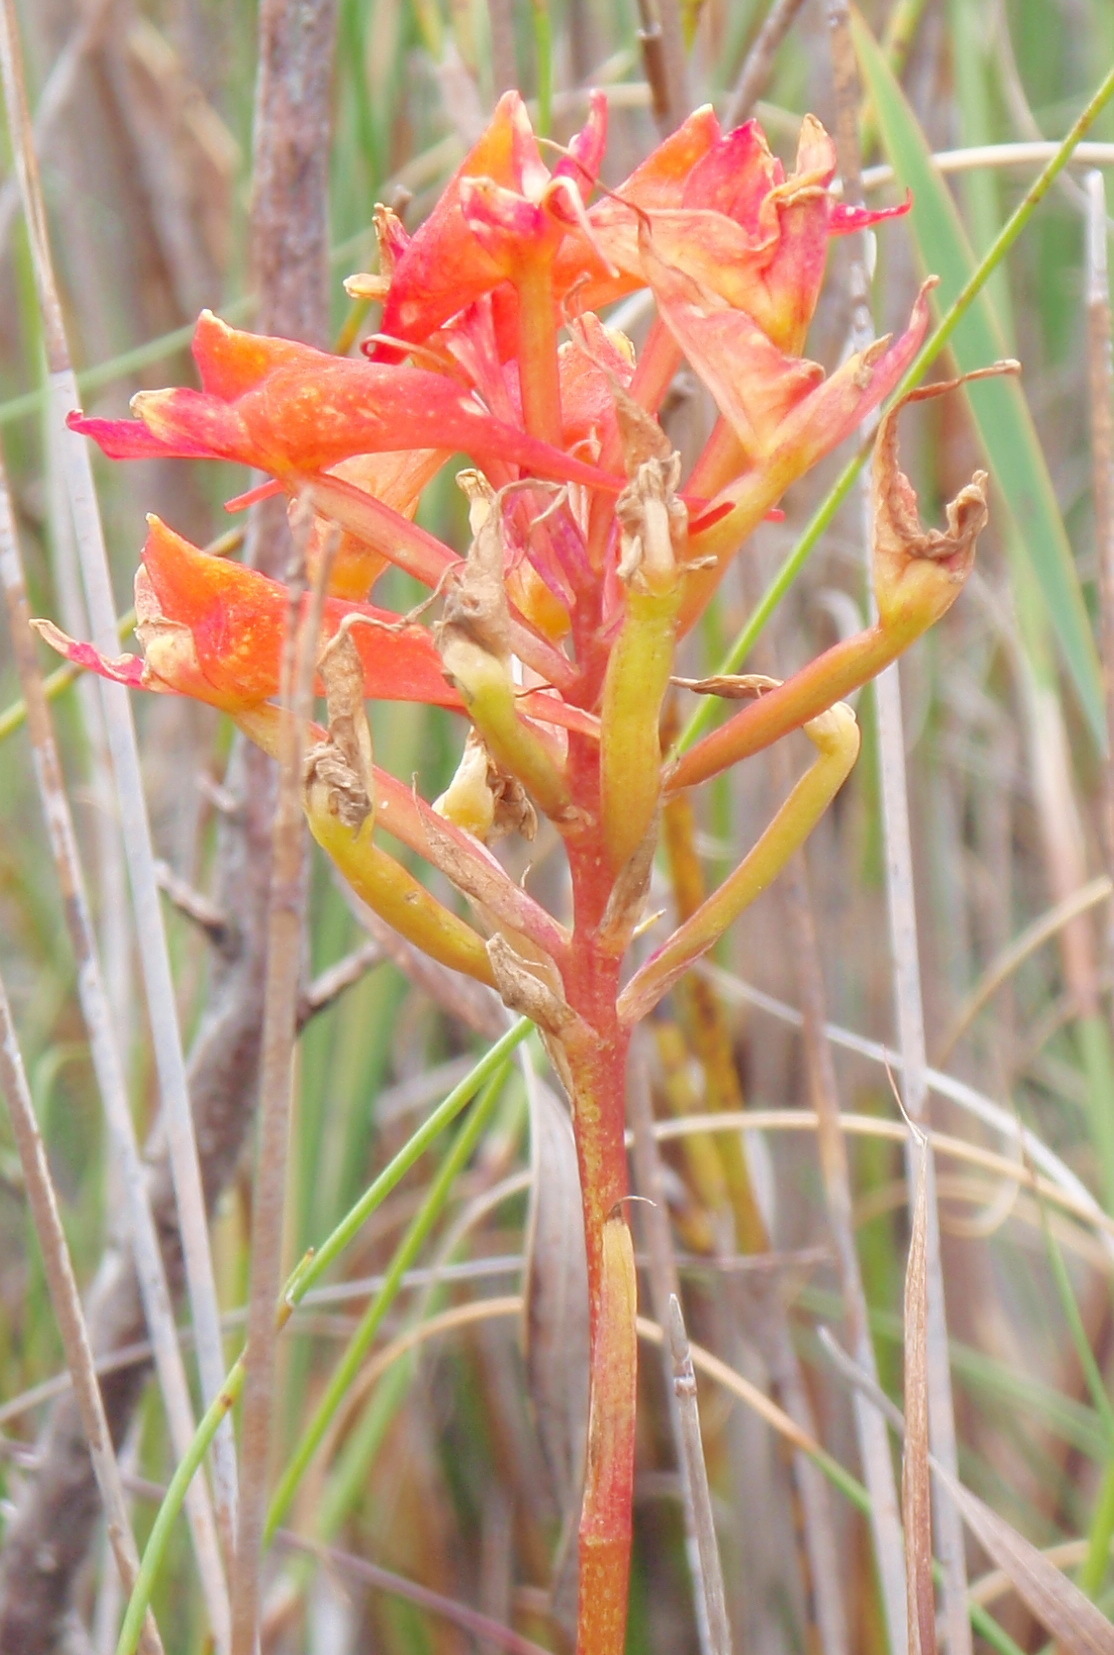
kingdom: Plantae
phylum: Tracheophyta
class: Liliopsida
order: Asparagales
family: Orchidaceae
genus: Disa
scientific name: Disa ferruginea
